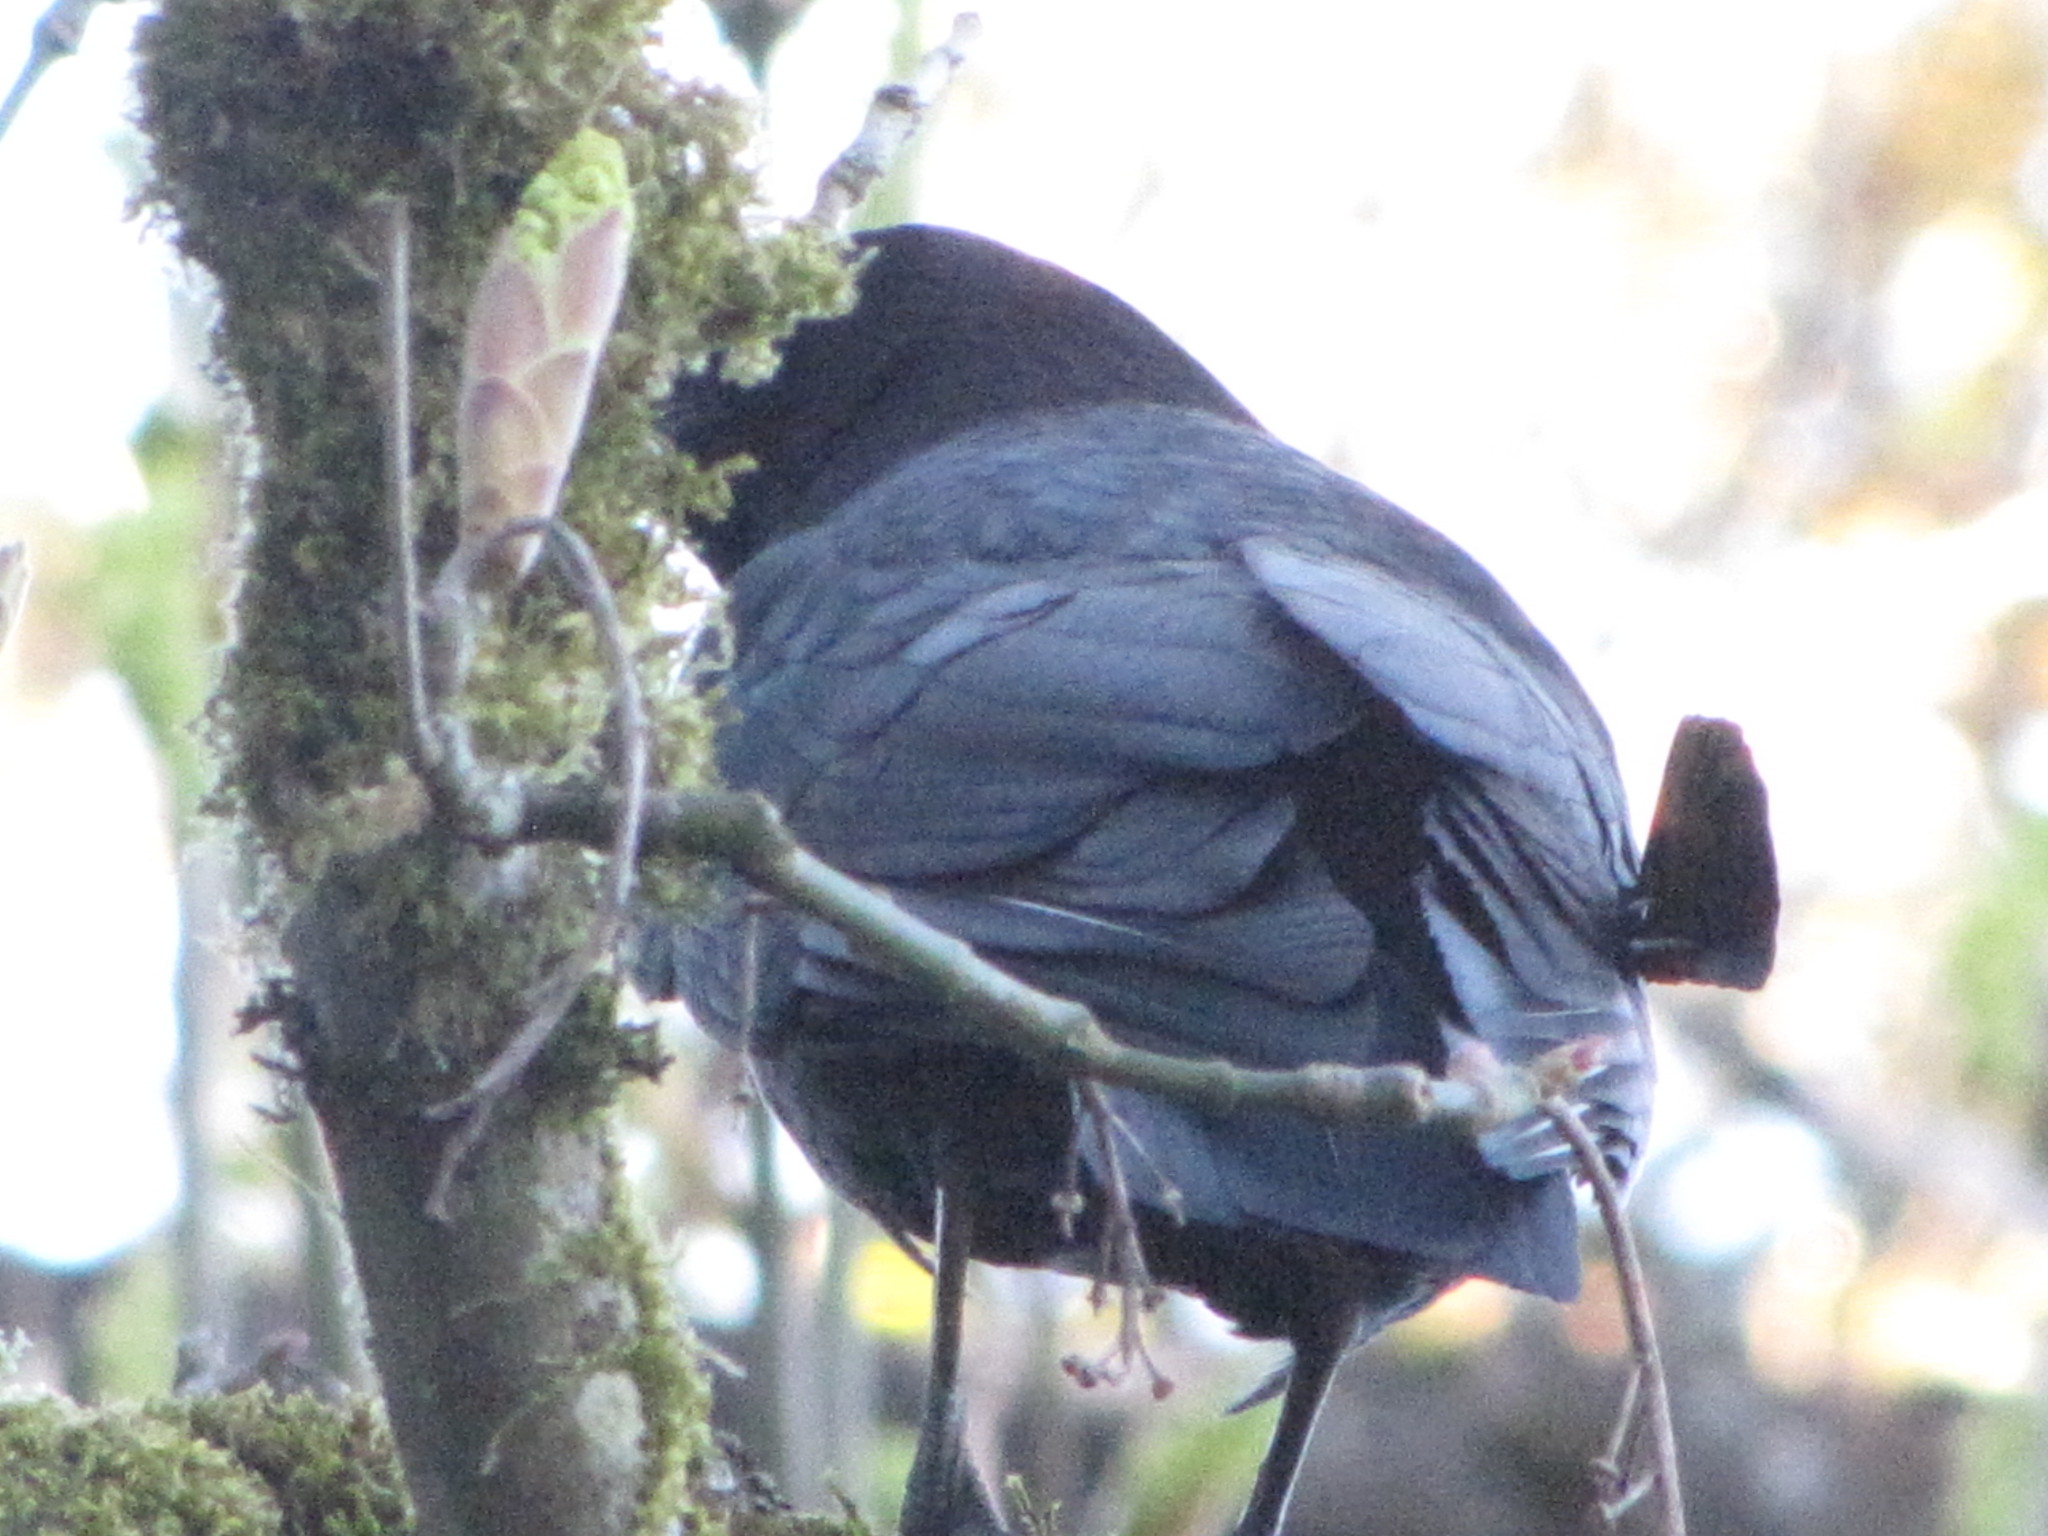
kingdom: Animalia
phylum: Chordata
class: Aves
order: Passeriformes
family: Corvidae
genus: Corvus
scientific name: Corvus brachyrhynchos
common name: American crow
